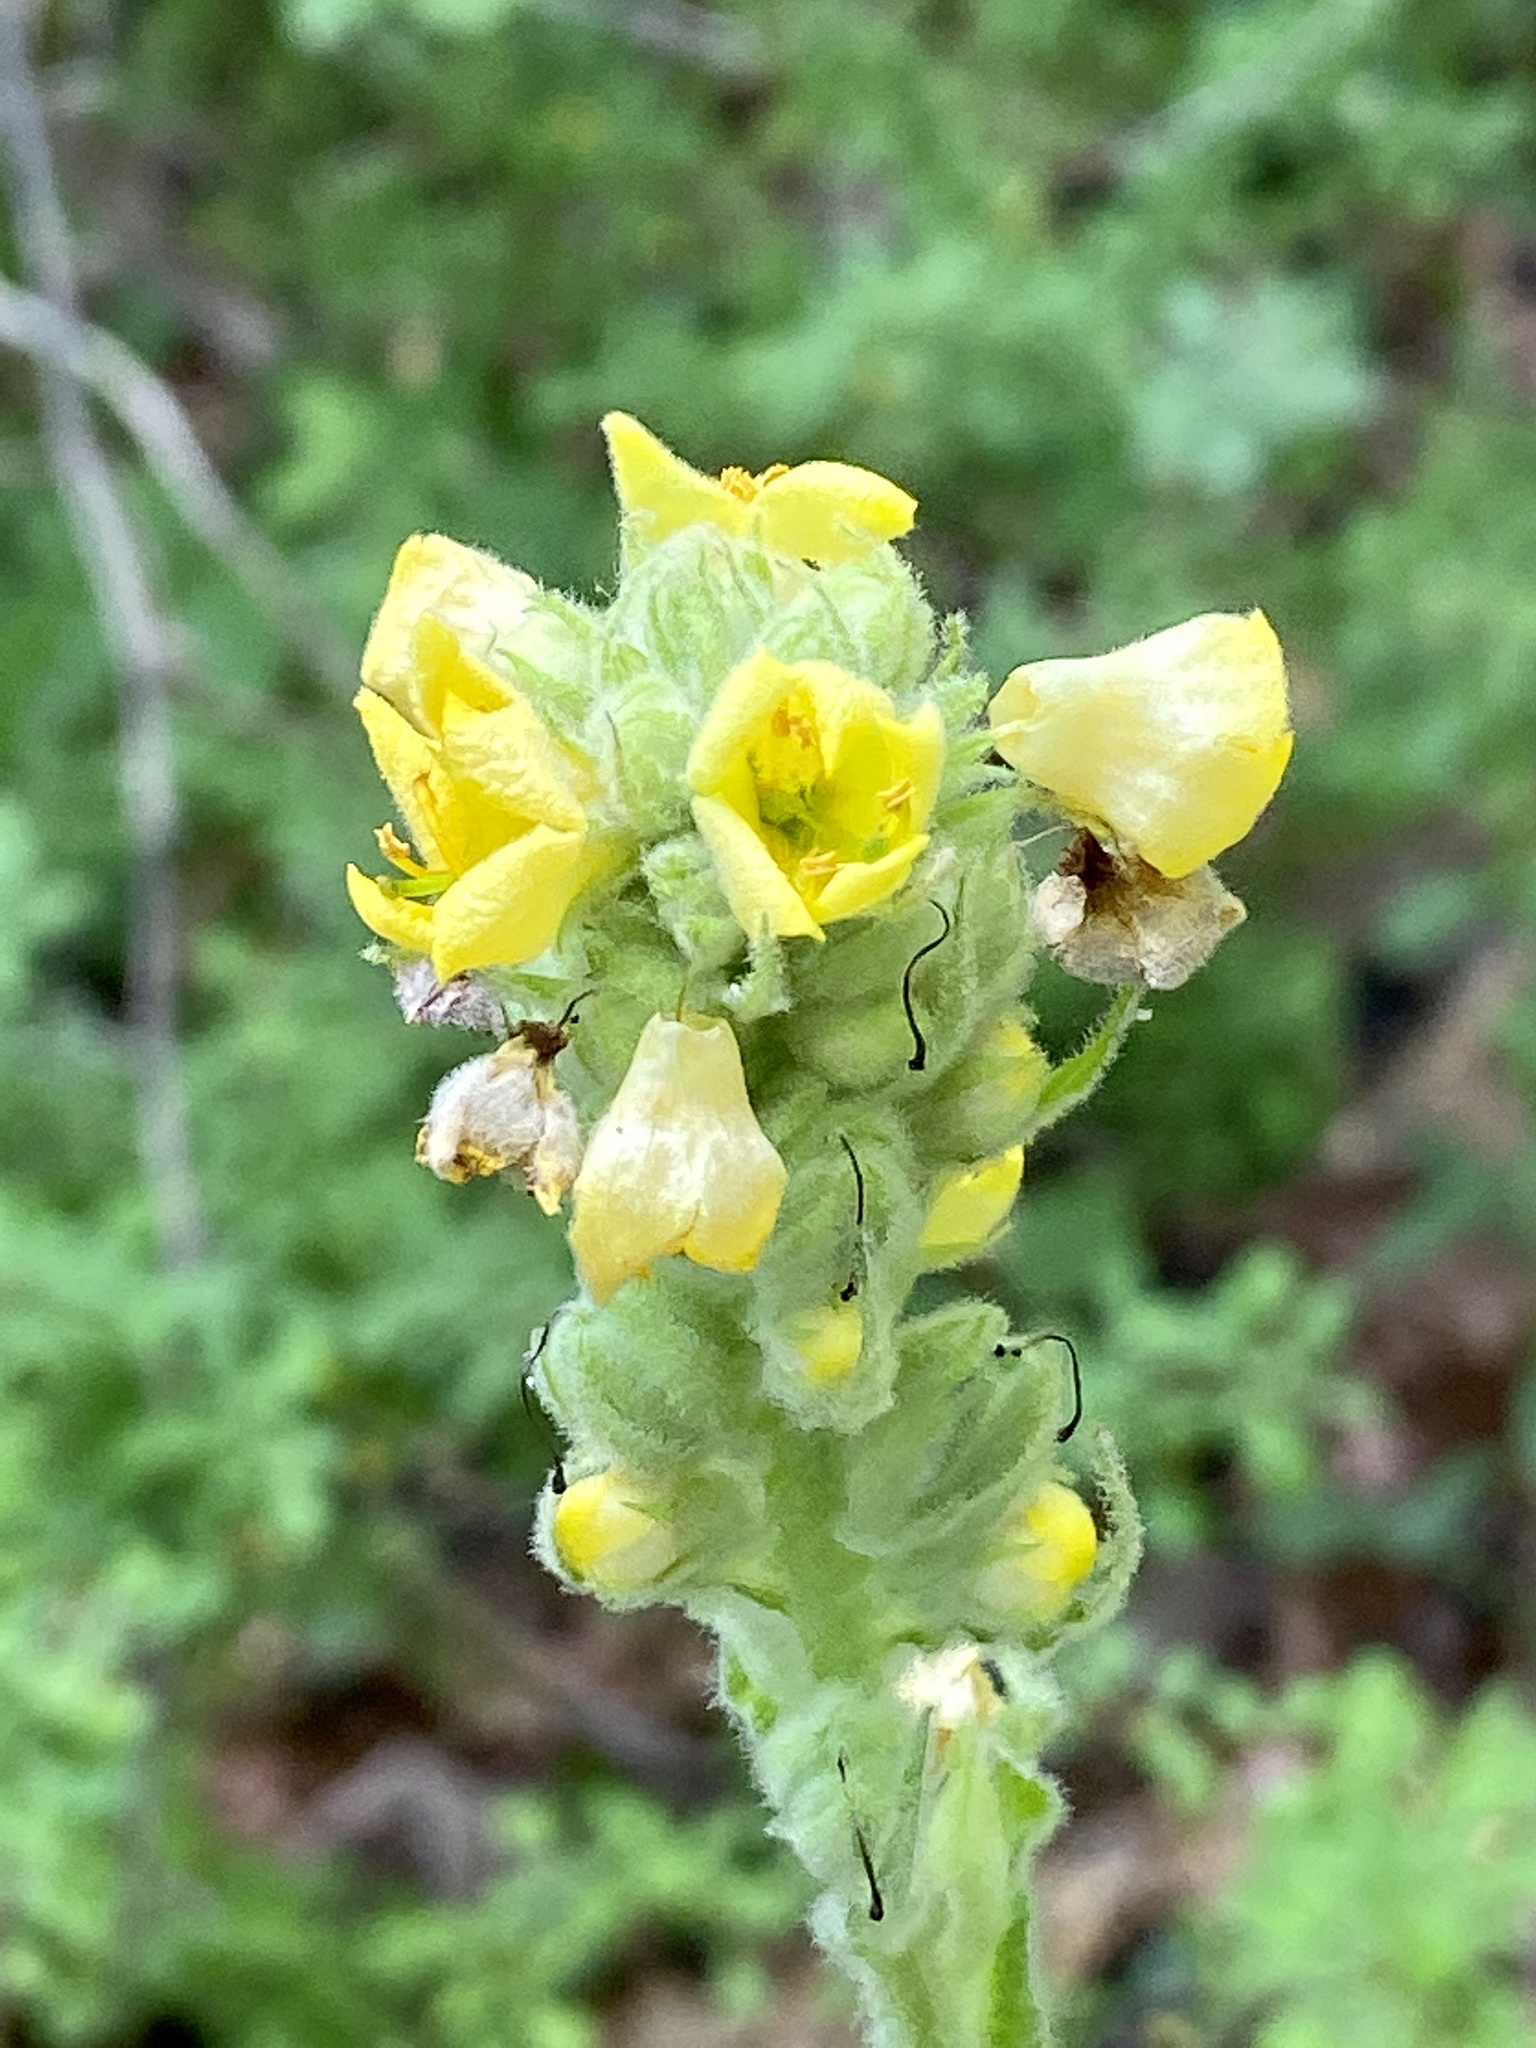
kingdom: Plantae
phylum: Tracheophyta
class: Magnoliopsida
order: Lamiales
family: Scrophulariaceae
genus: Verbascum
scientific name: Verbascum thapsus
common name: Common mullein
